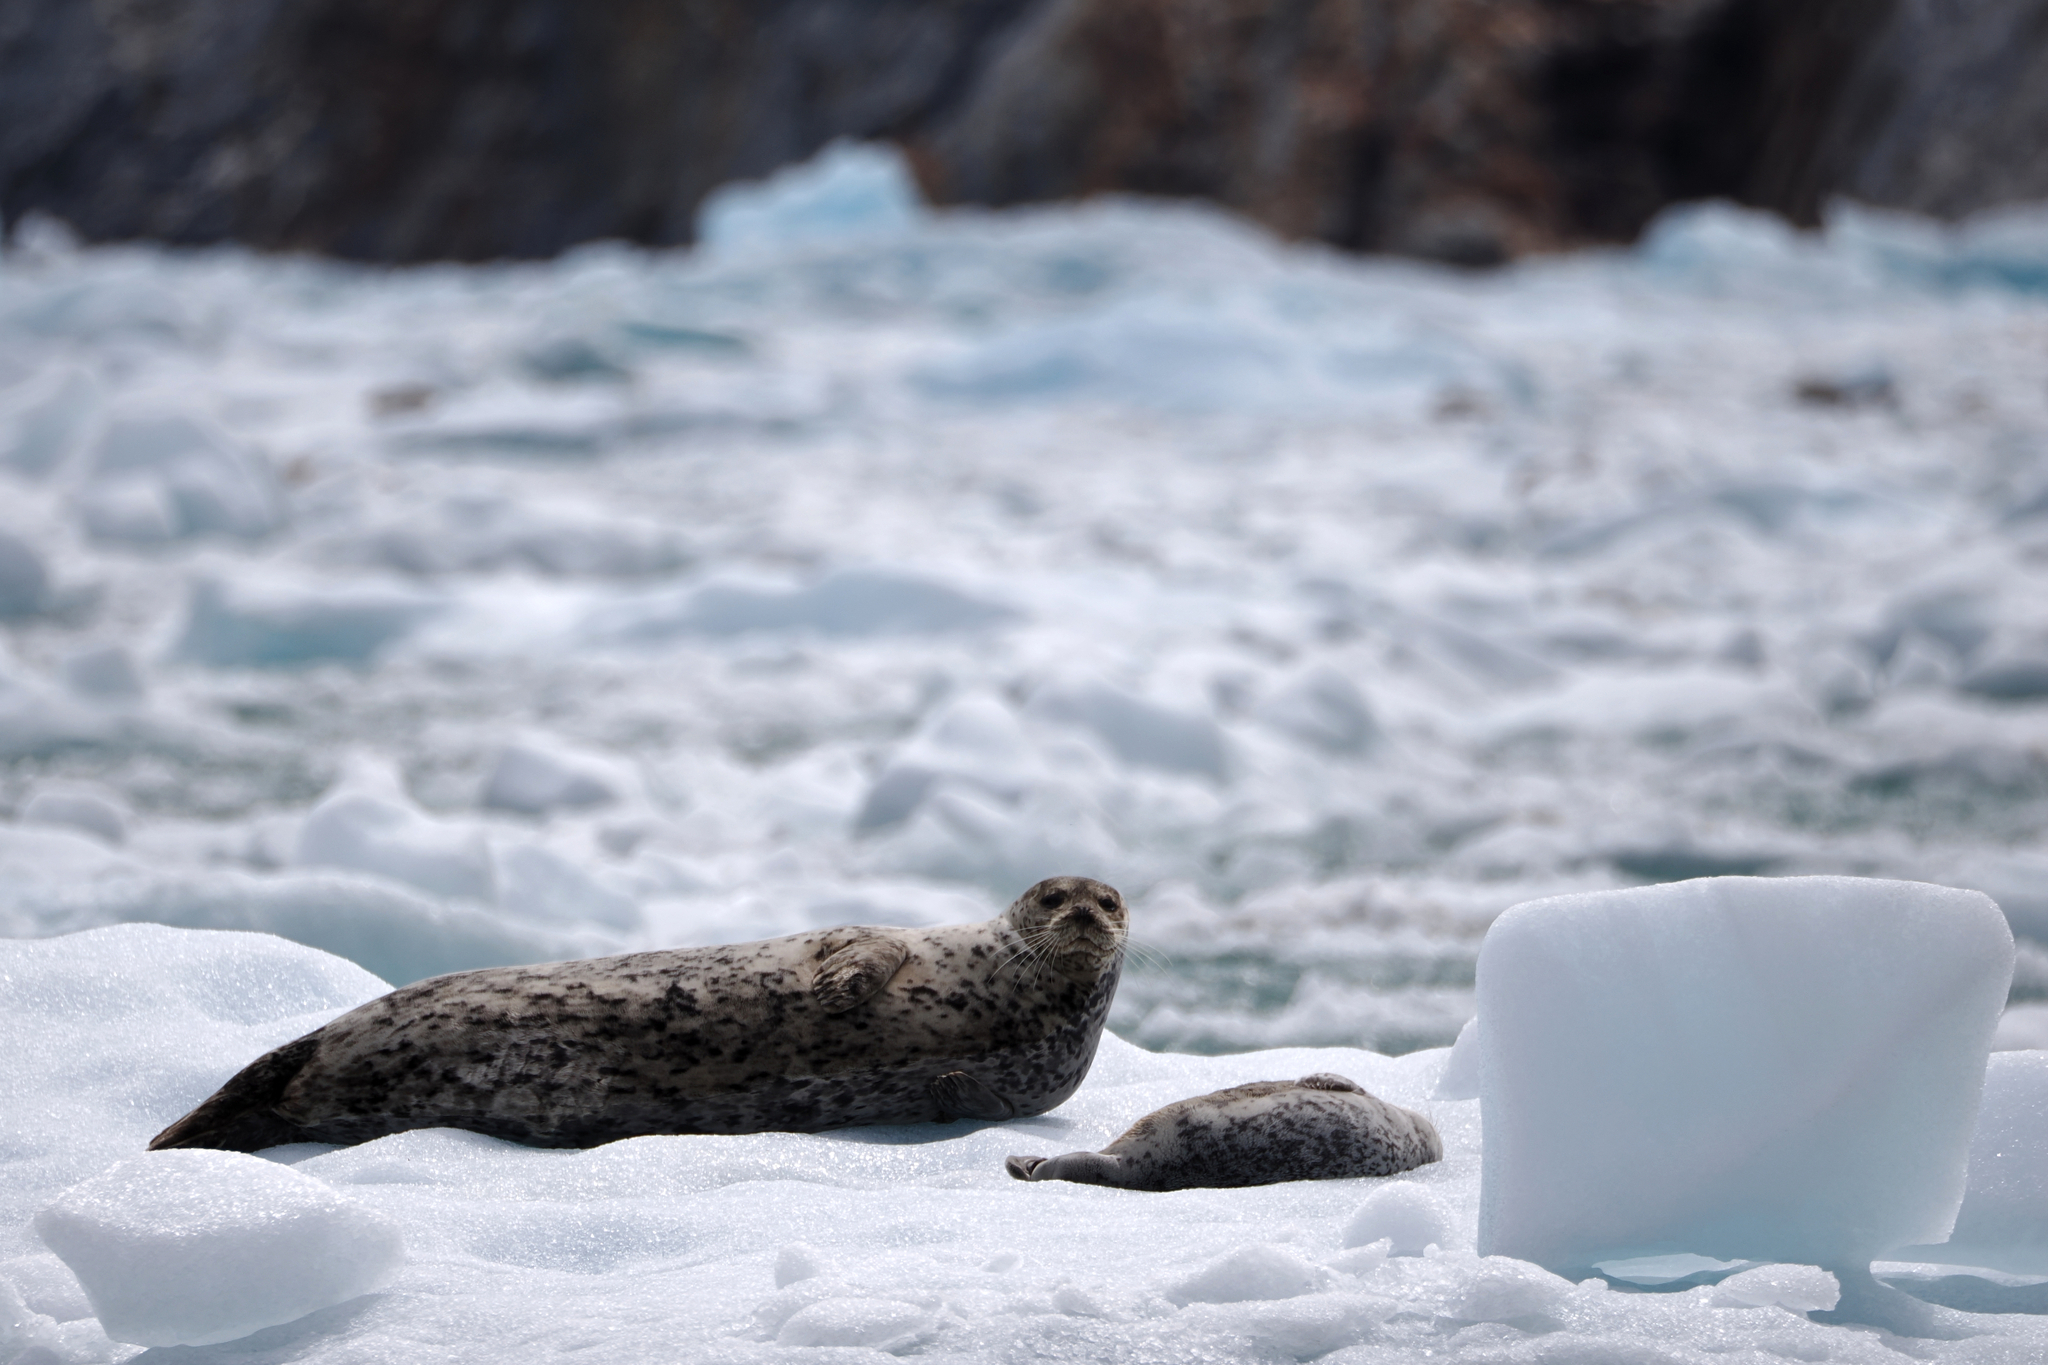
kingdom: Animalia
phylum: Chordata
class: Mammalia
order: Carnivora
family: Phocidae
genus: Phoca
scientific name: Phoca vitulina
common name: Harbor seal
